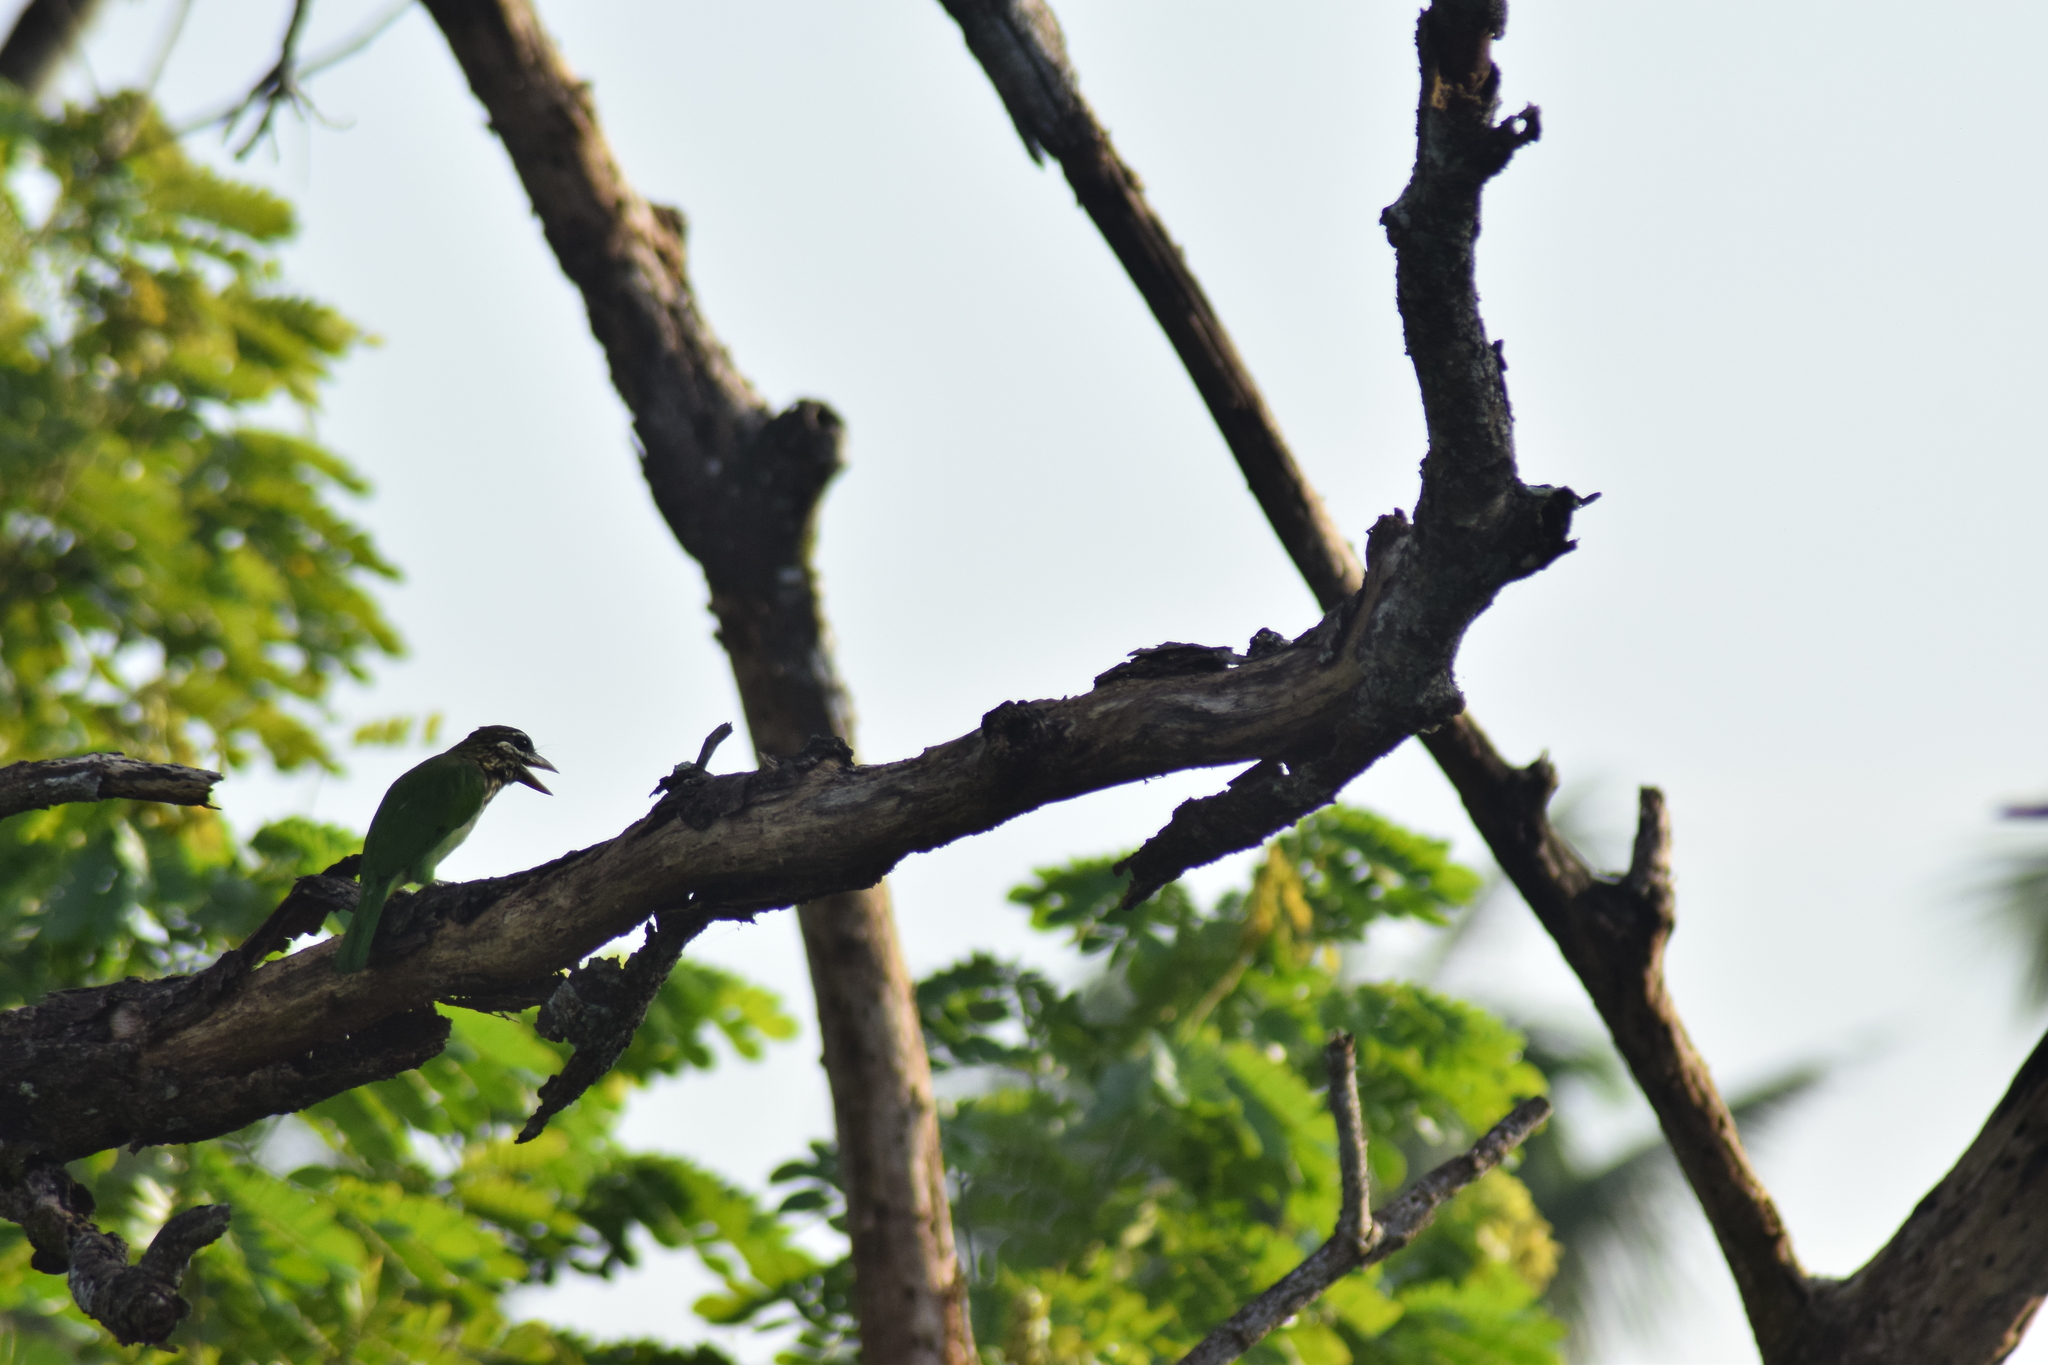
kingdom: Animalia
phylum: Chordata
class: Aves
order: Piciformes
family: Megalaimidae
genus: Psilopogon
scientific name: Psilopogon viridis
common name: White-cheeked barbet
